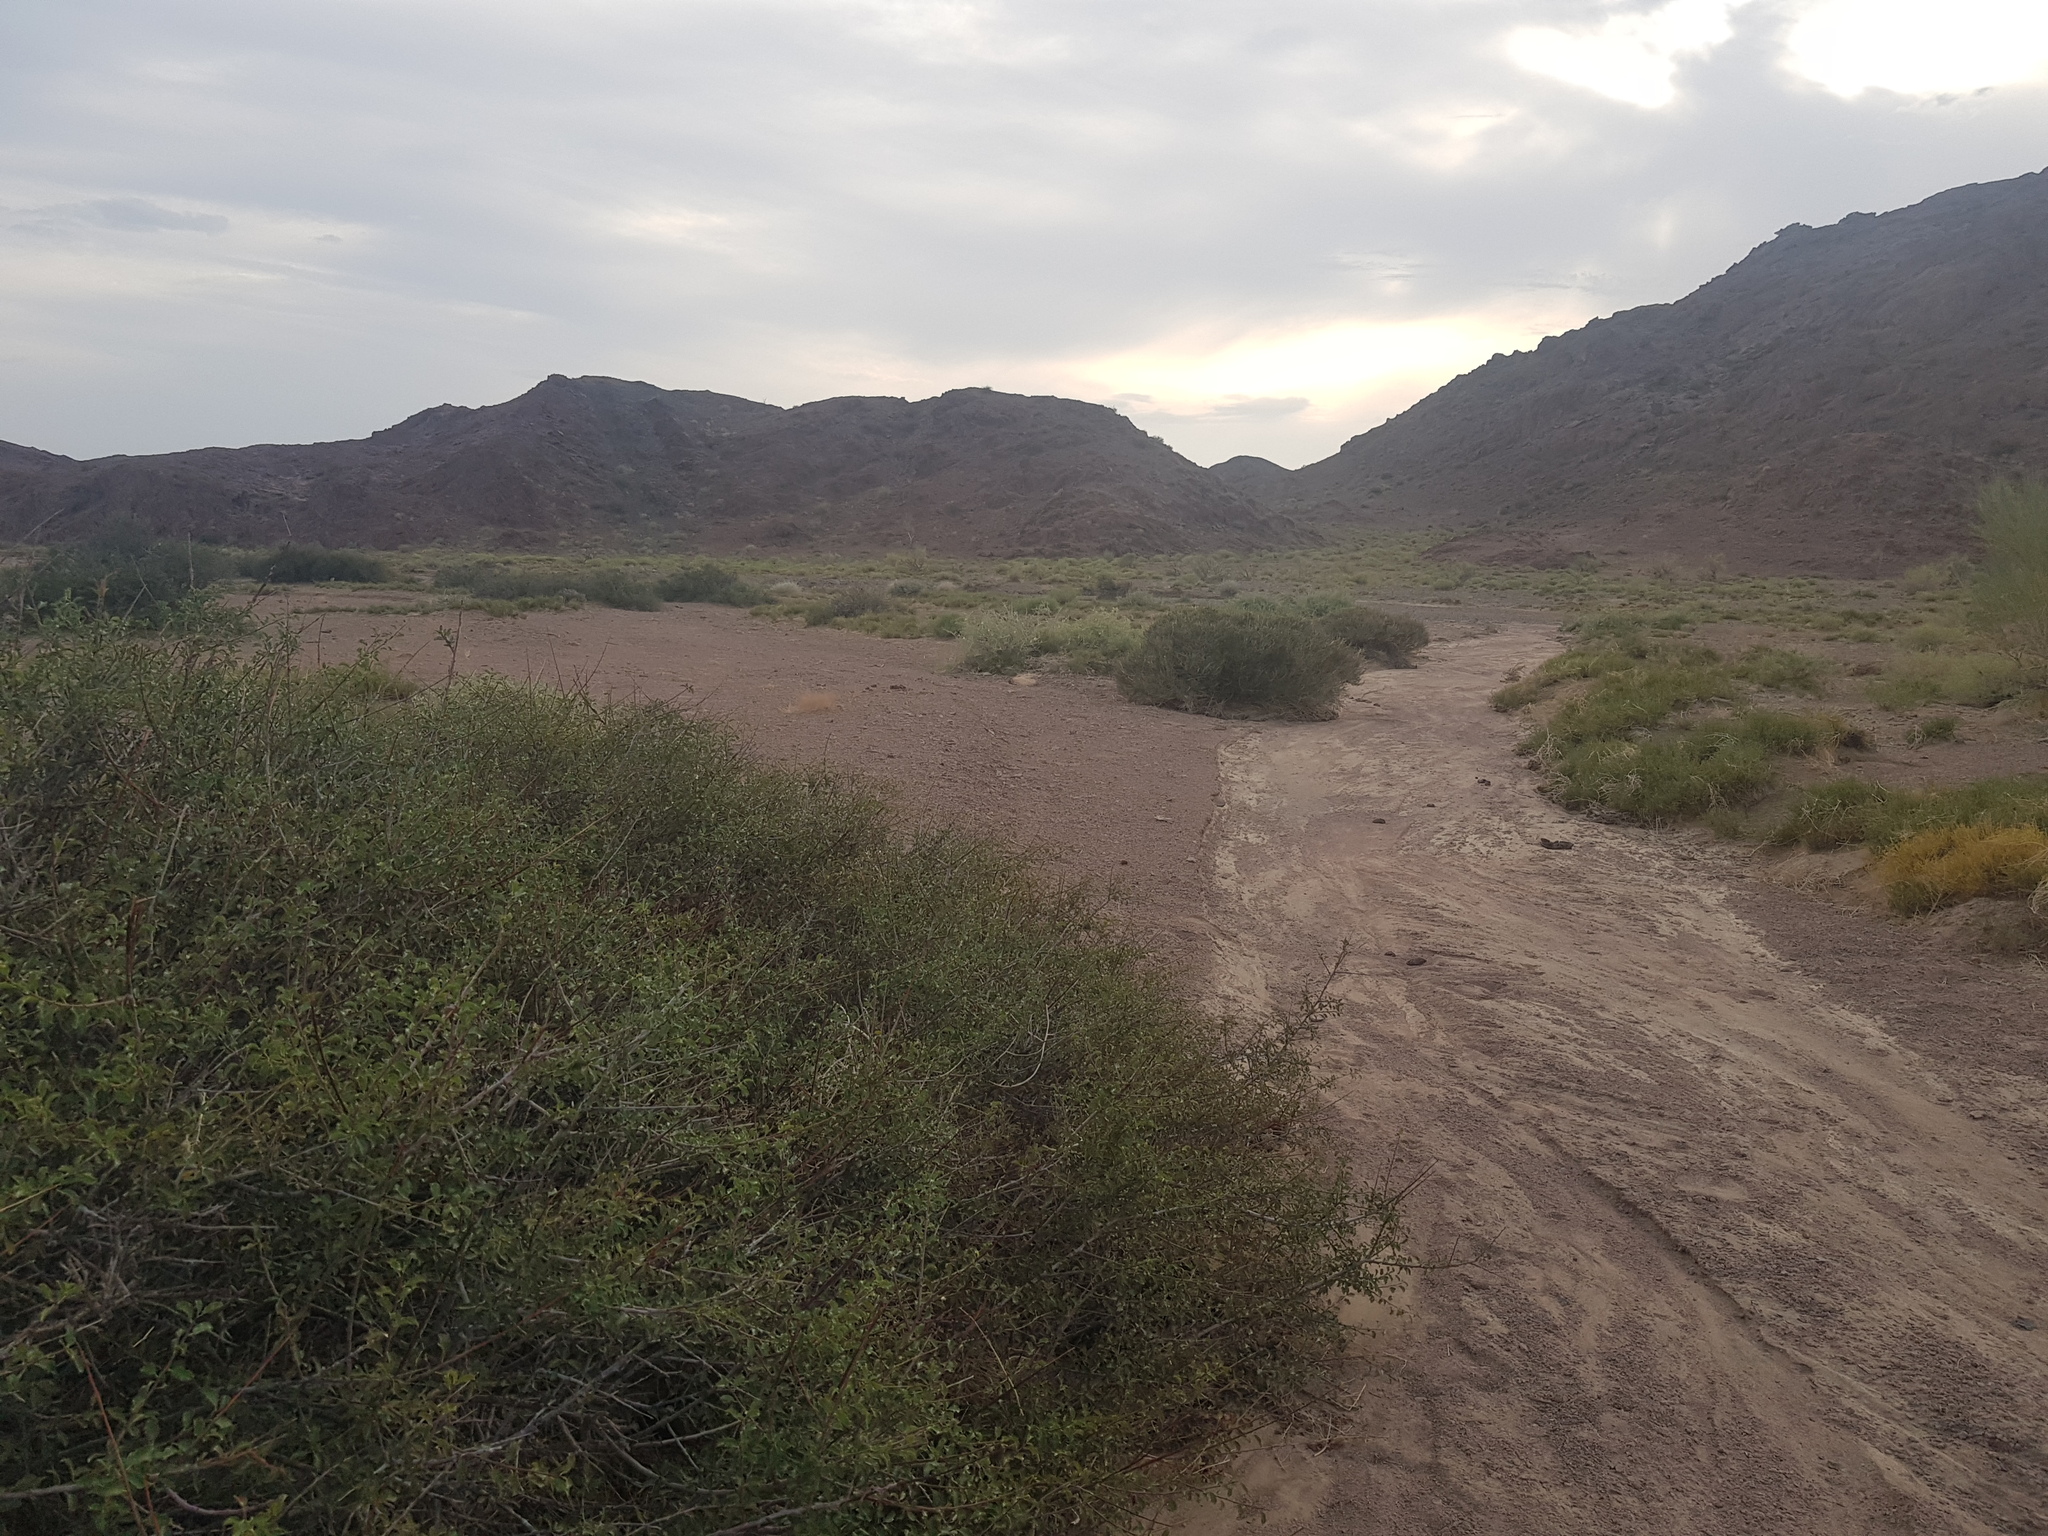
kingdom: Plantae
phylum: Tracheophyta
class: Magnoliopsida
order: Rosales
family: Rosaceae
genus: Prunus
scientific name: Prunus pedunculata
